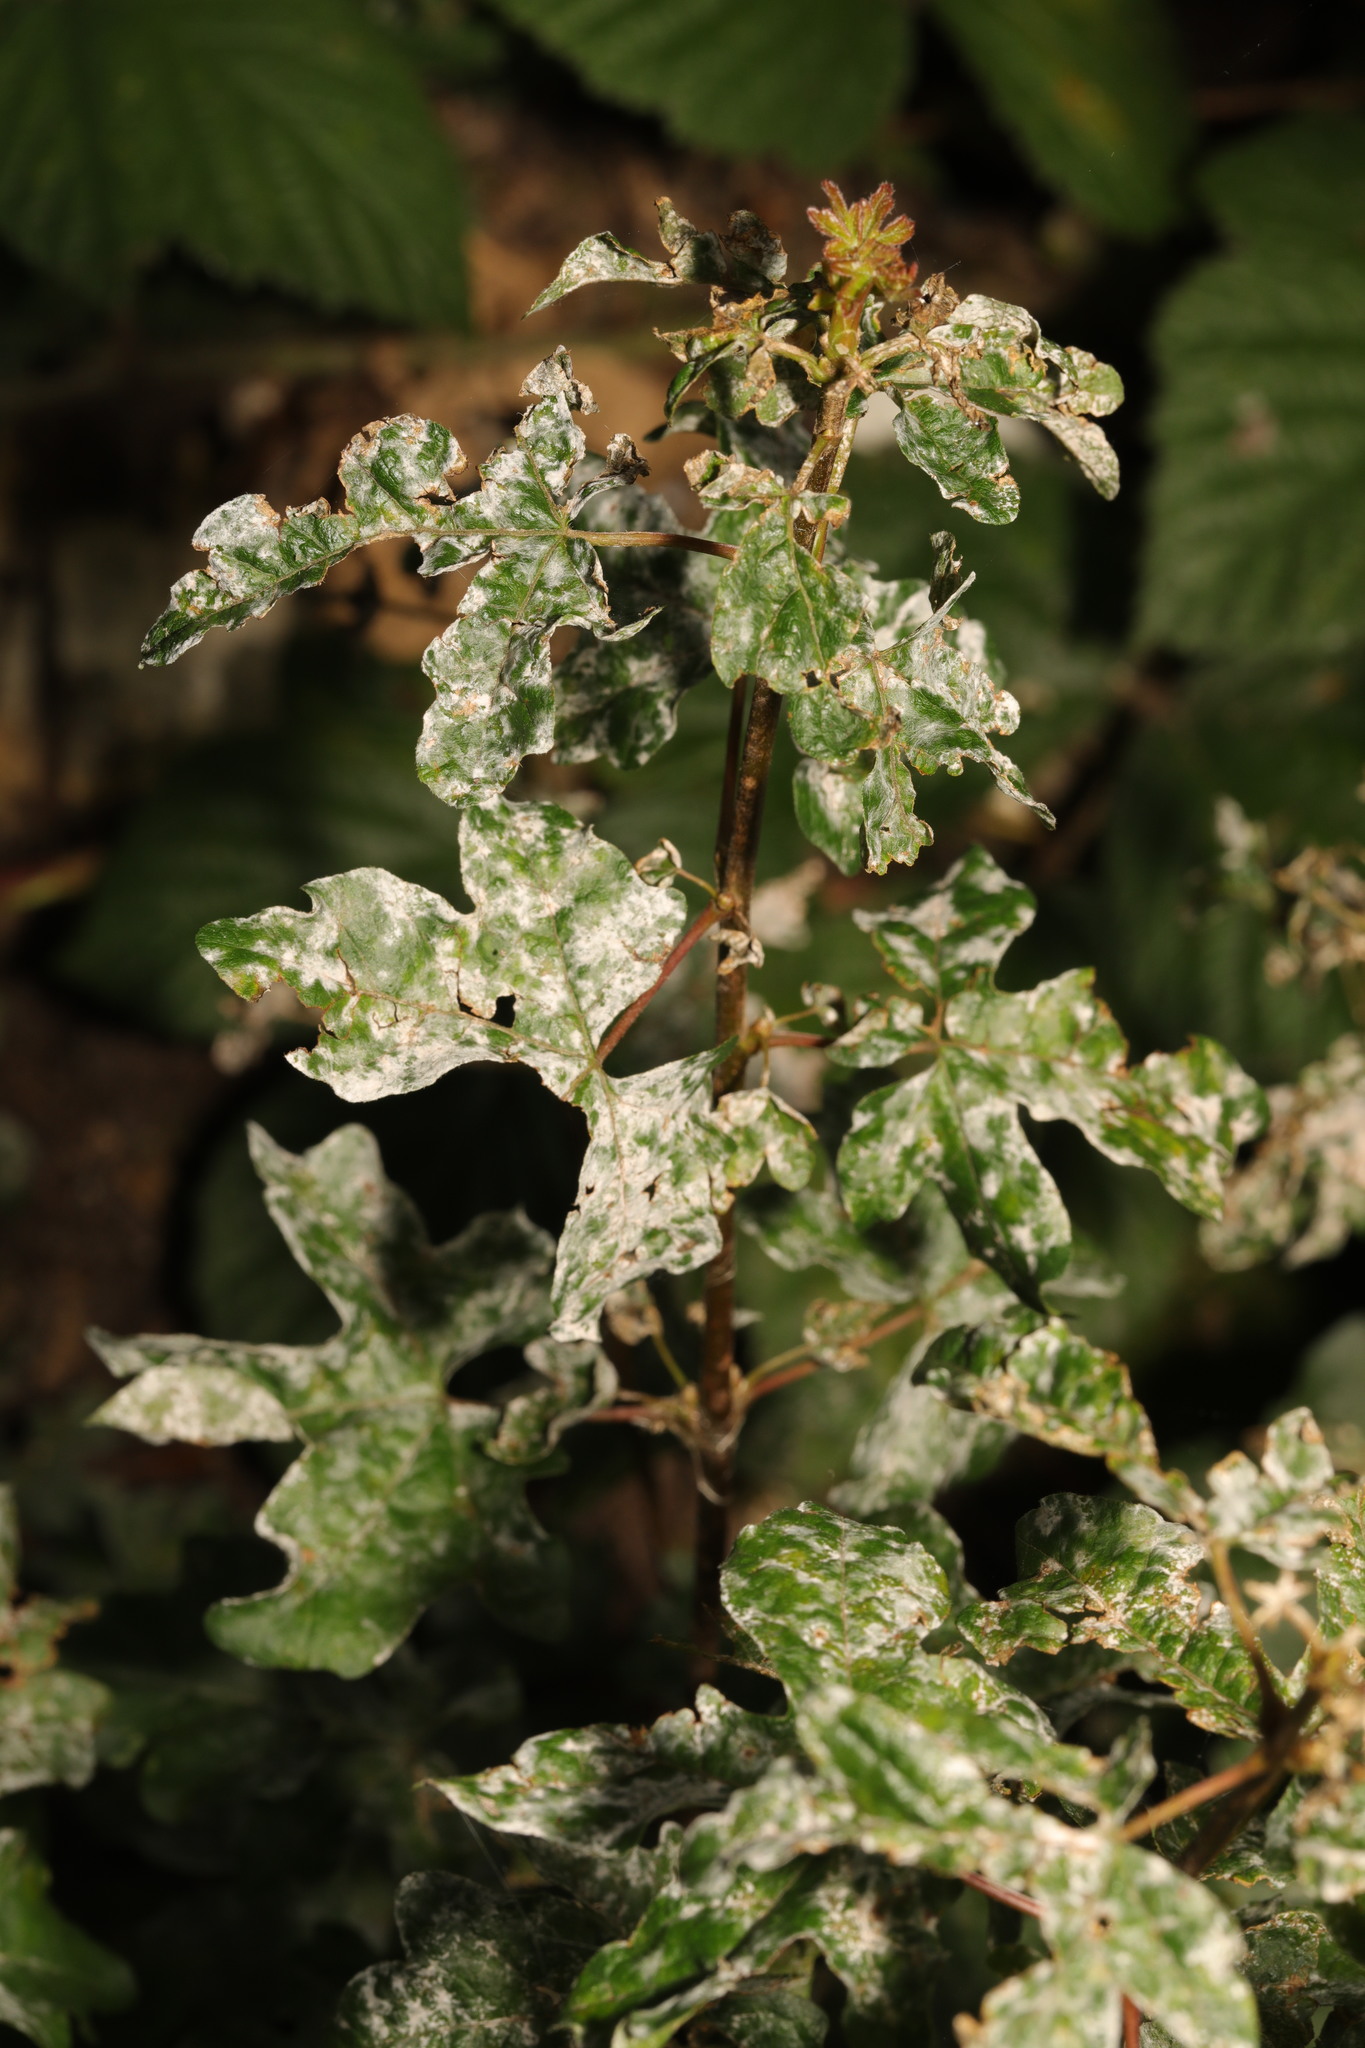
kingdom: Plantae
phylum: Tracheophyta
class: Magnoliopsida
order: Sapindales
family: Sapindaceae
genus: Acer
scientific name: Acer campestre
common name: Field maple
